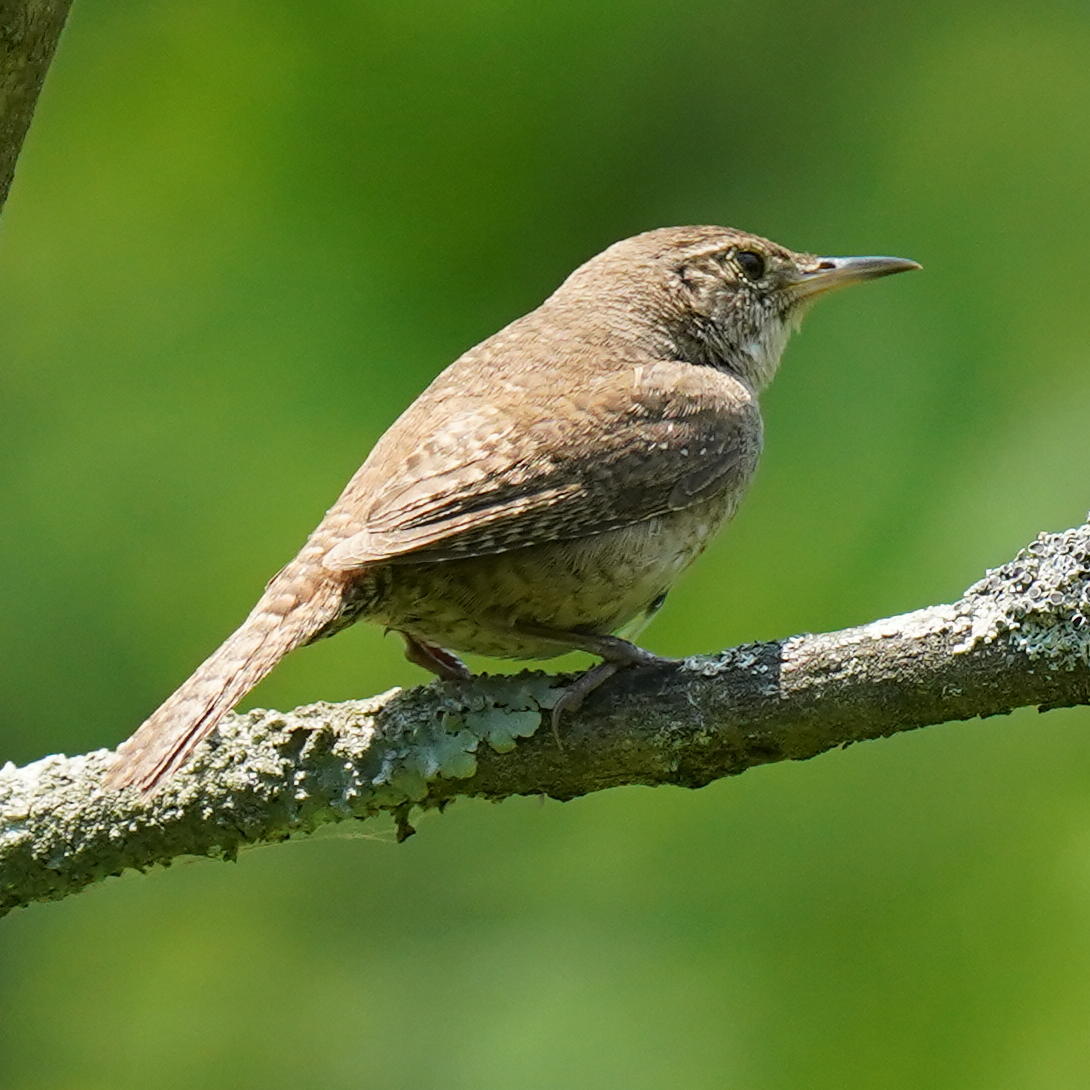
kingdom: Animalia
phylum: Chordata
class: Aves
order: Passeriformes
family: Troglodytidae
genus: Troglodytes
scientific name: Troglodytes aedon
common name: House wren
